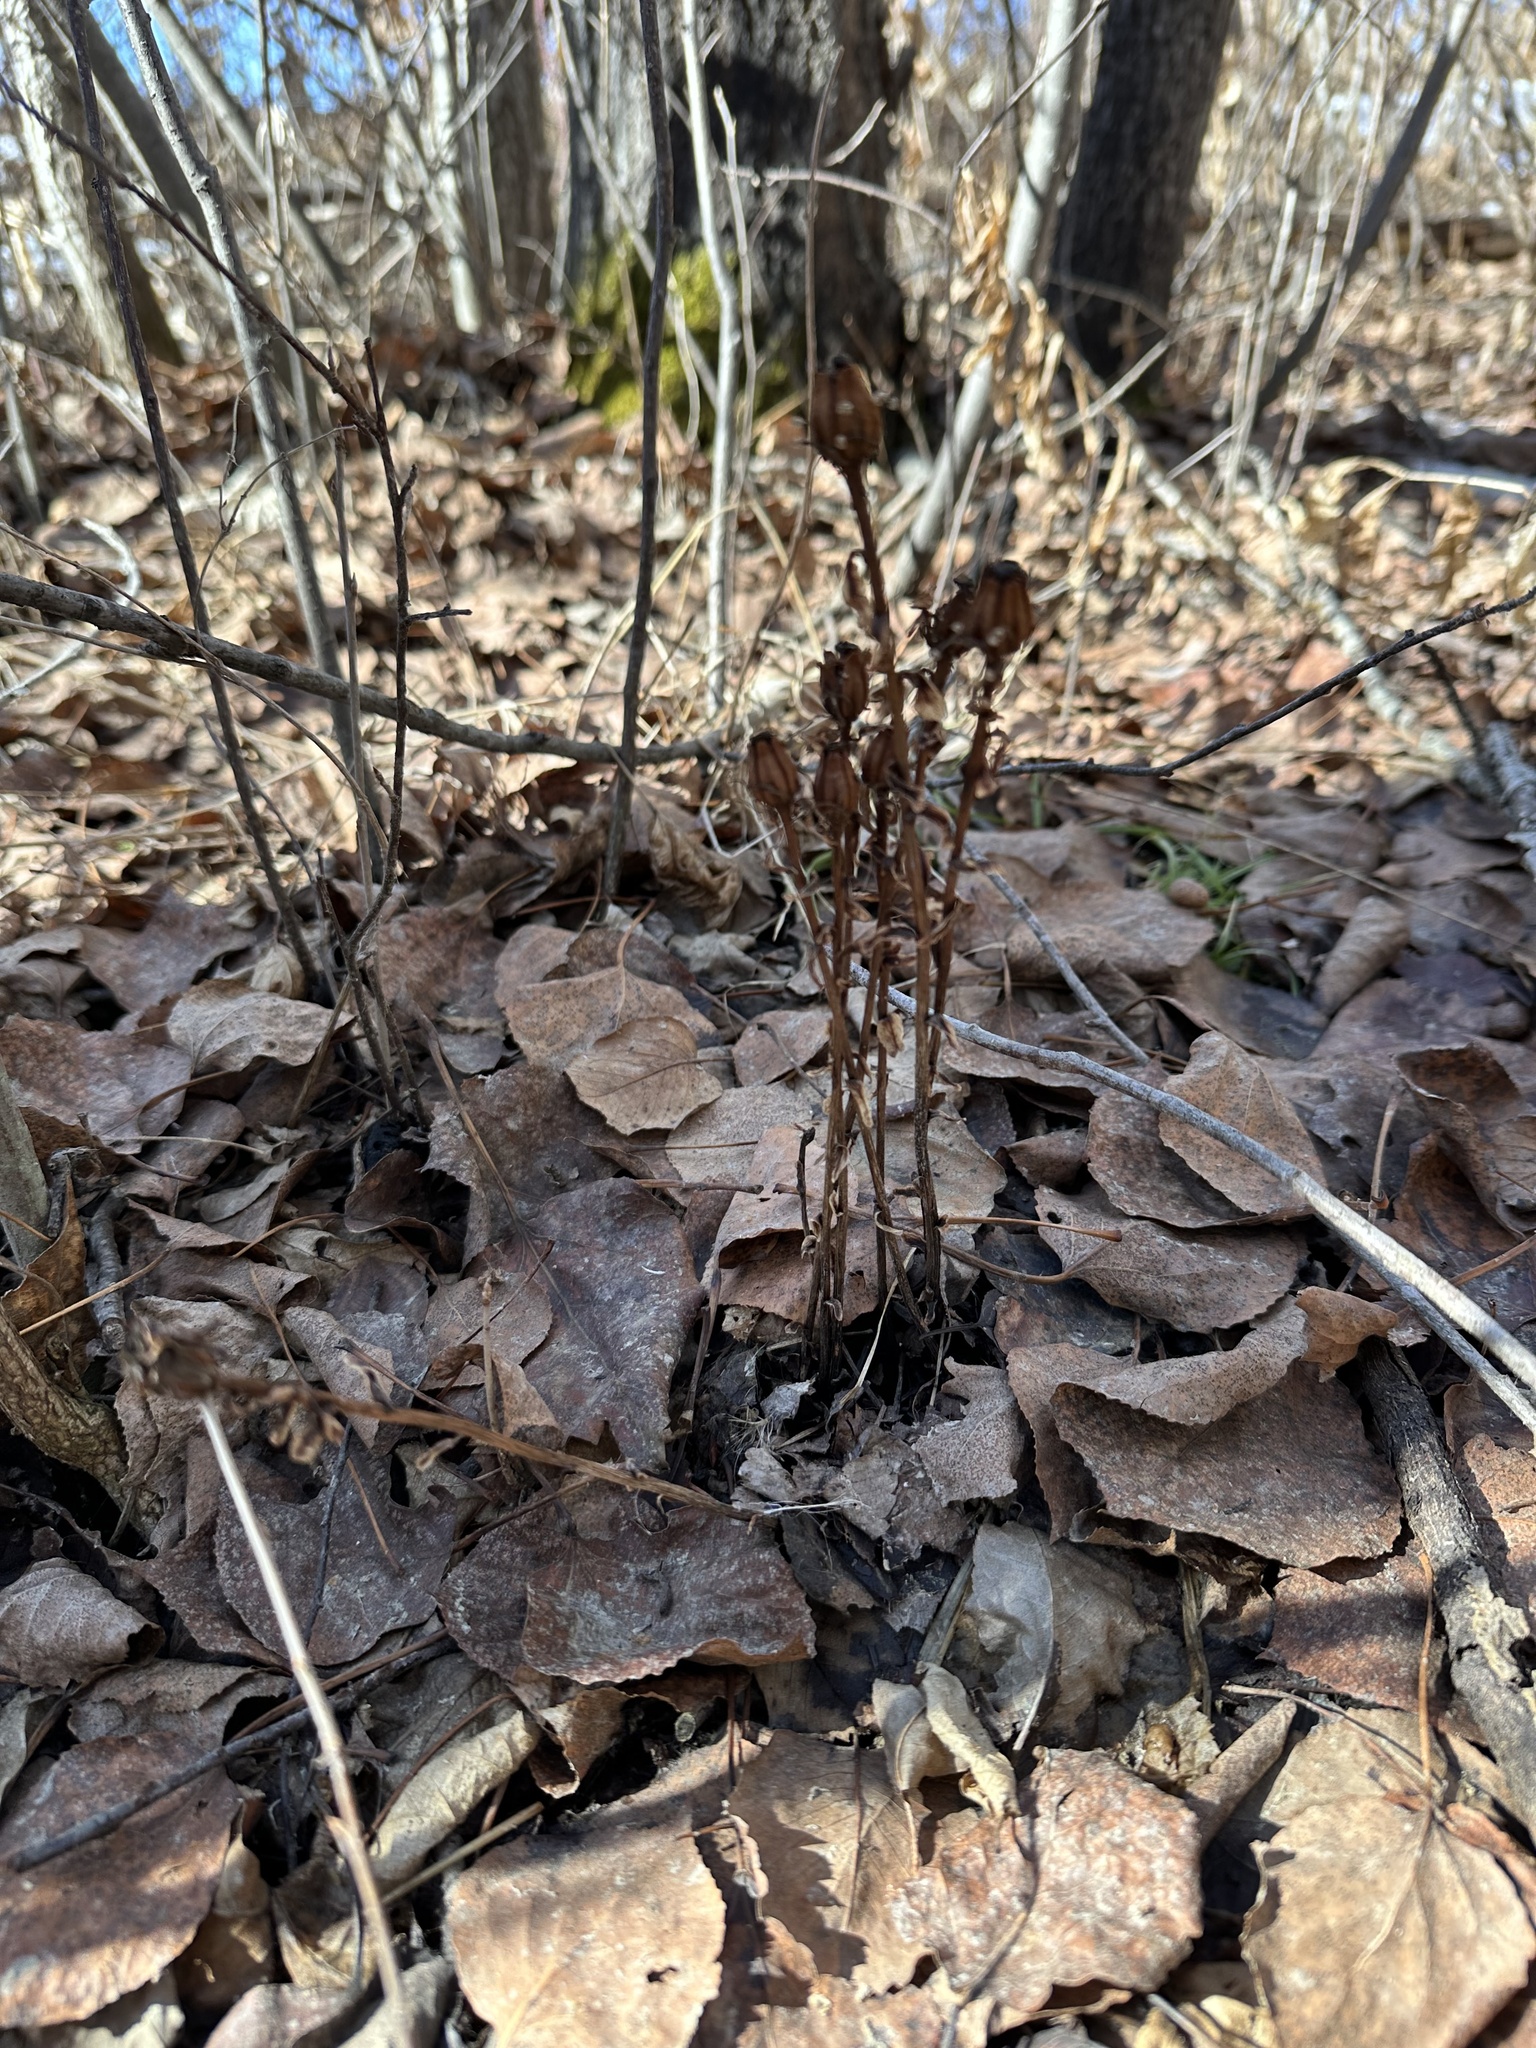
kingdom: Plantae
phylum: Tracheophyta
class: Magnoliopsida
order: Ericales
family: Ericaceae
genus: Monotropa
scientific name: Monotropa uniflora
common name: Convulsion root
